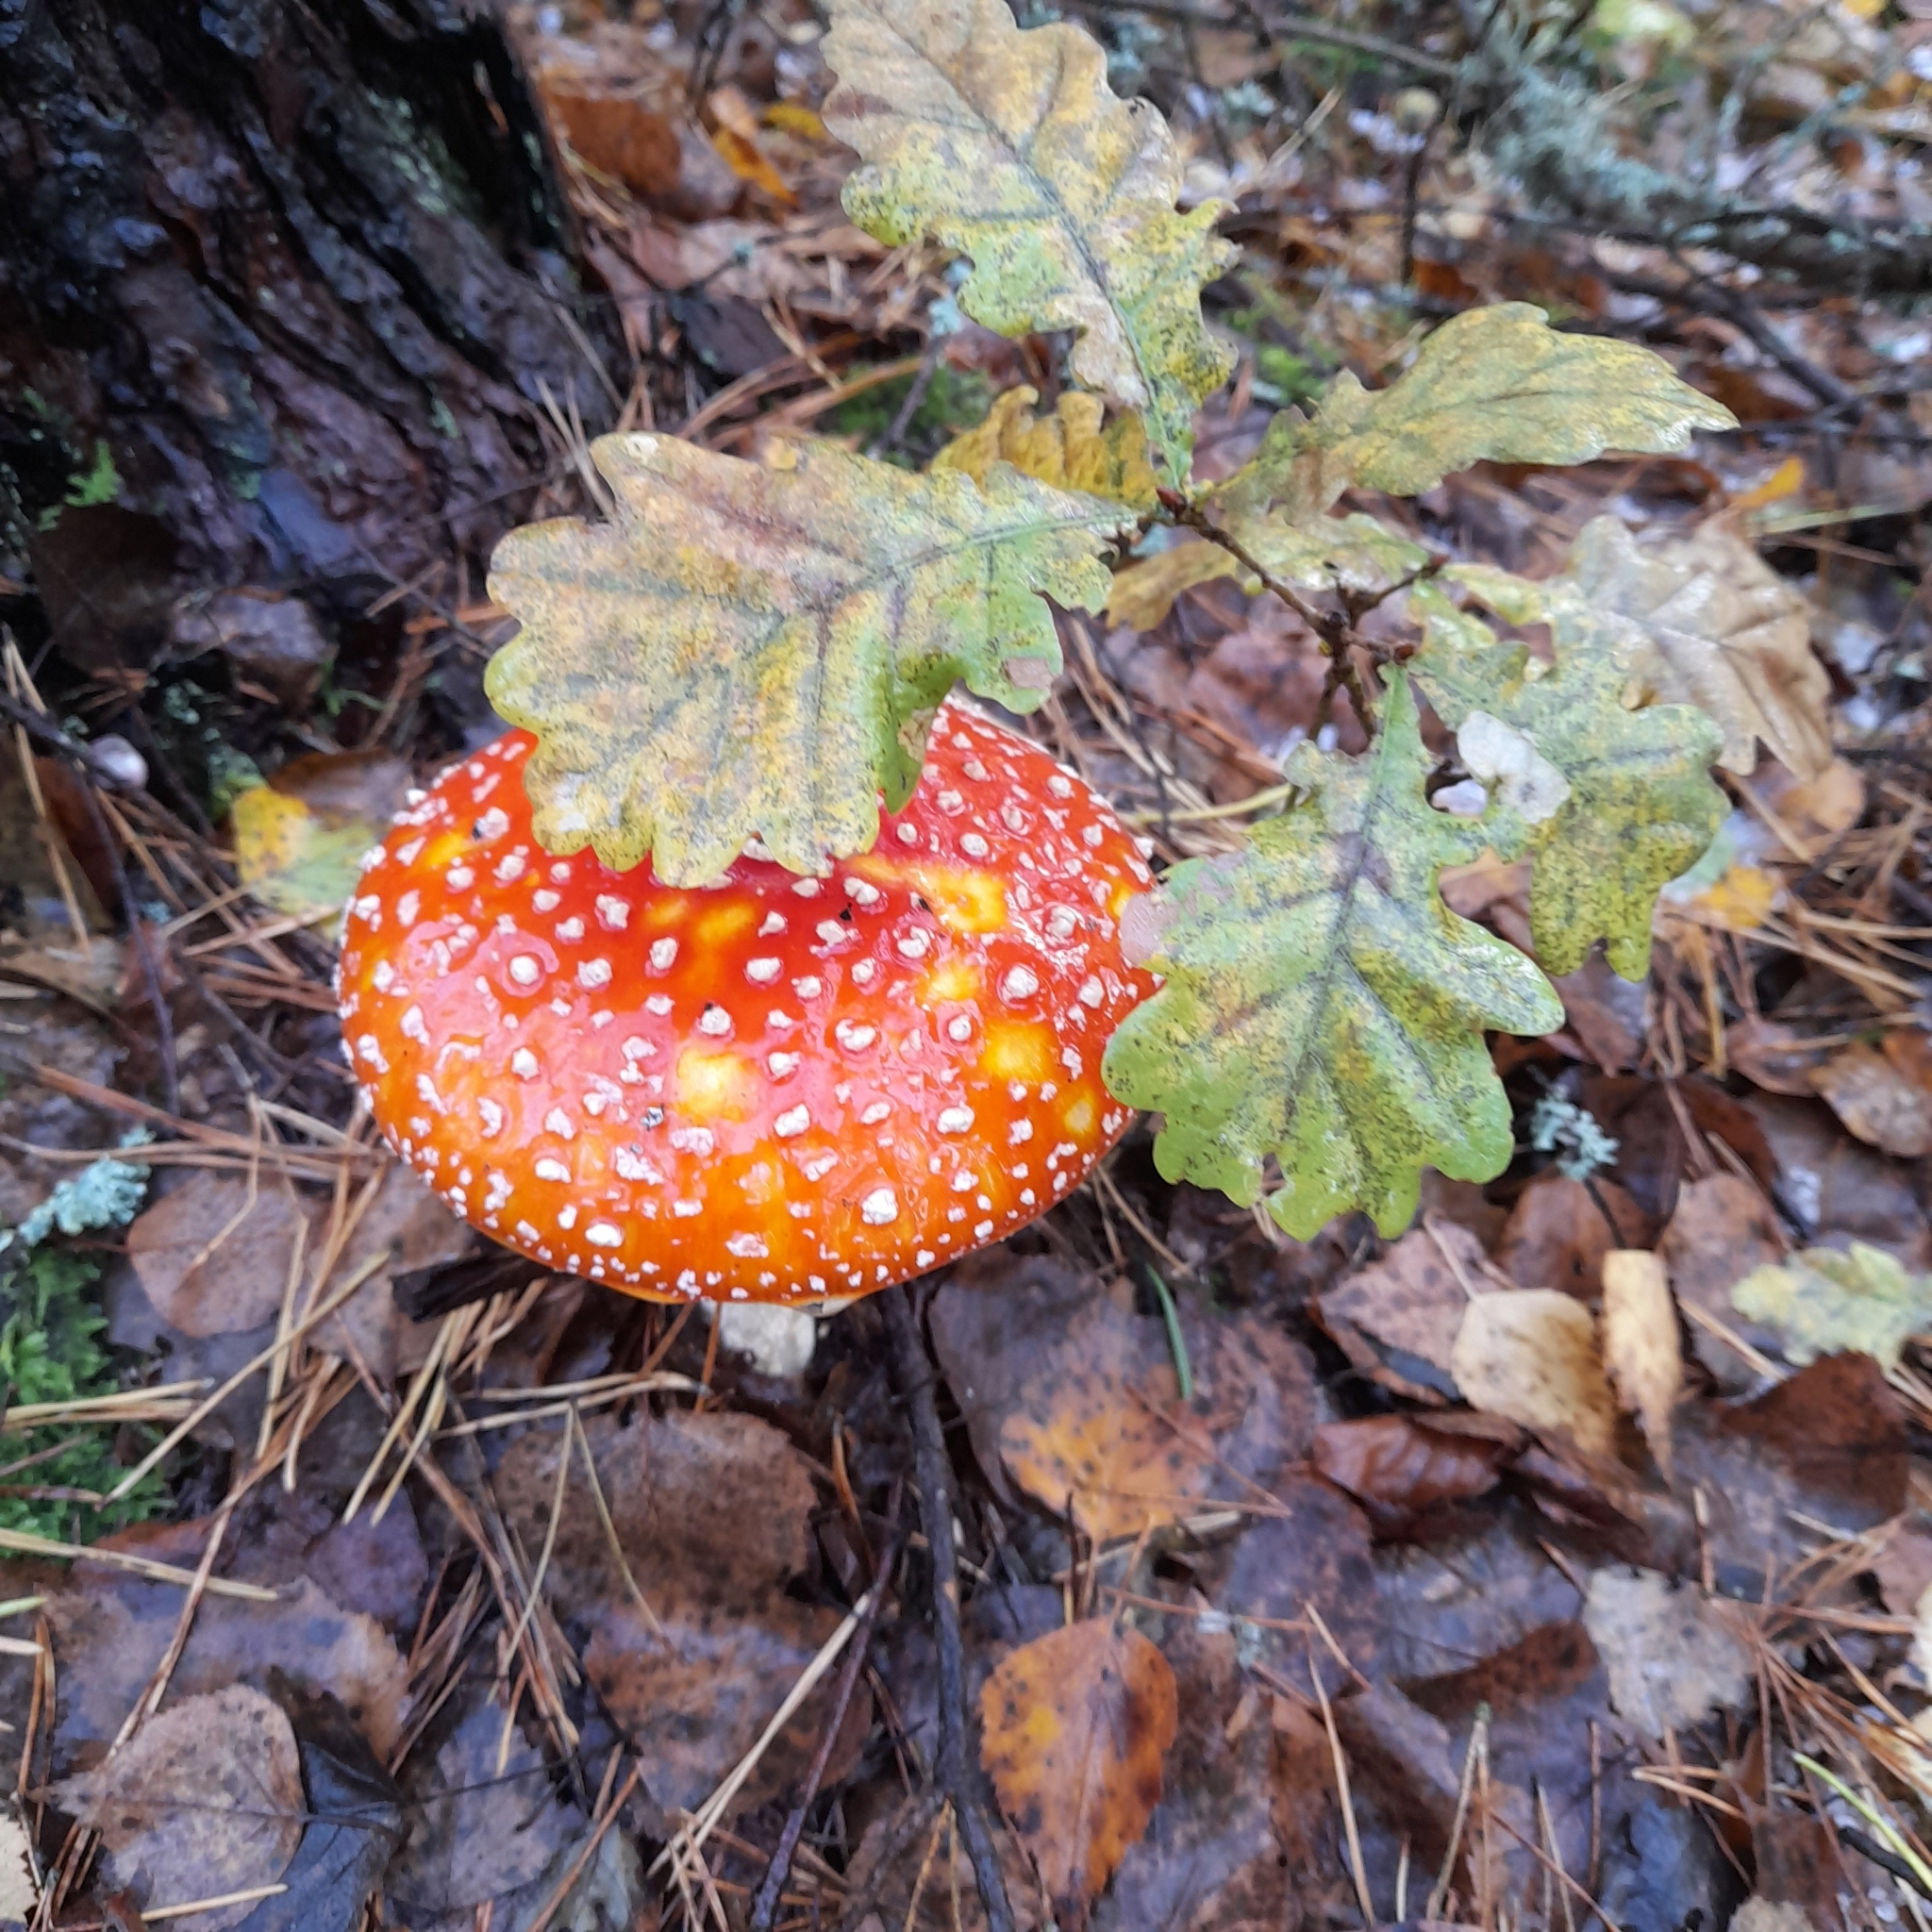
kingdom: Fungi
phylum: Basidiomycota
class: Agaricomycetes
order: Agaricales
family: Amanitaceae
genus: Amanita
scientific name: Amanita muscaria
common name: Fly agaric
